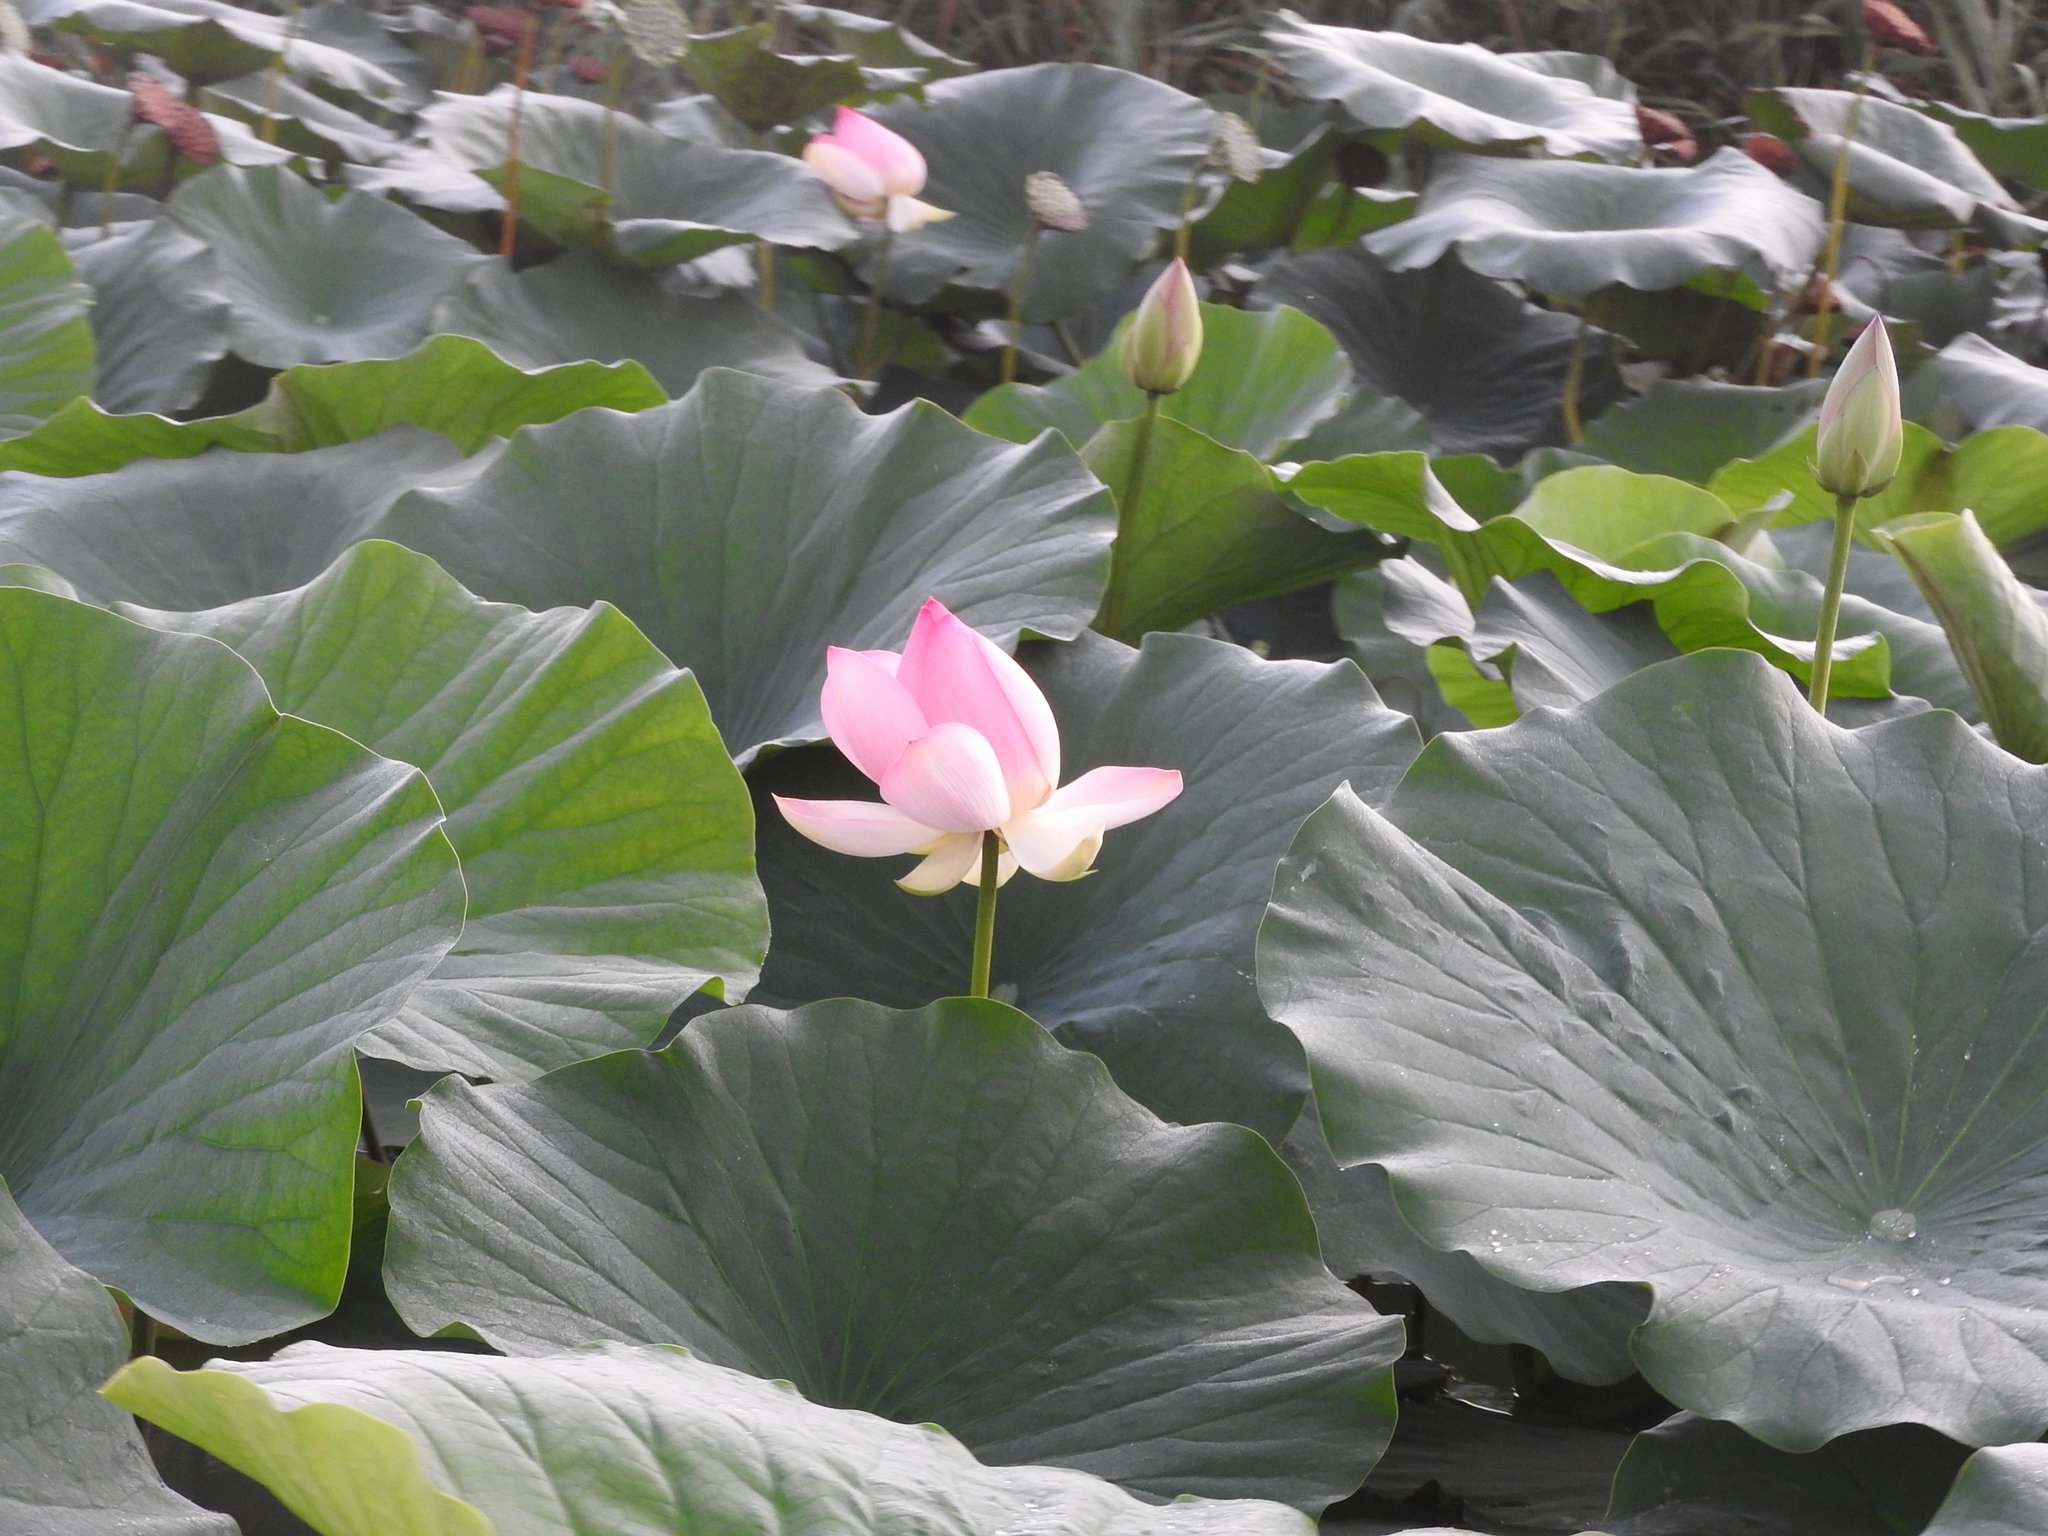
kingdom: Plantae
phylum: Tracheophyta
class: Magnoliopsida
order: Proteales
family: Nelumbonaceae
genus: Nelumbo
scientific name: Nelumbo nucifera
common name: Sacred lotus
